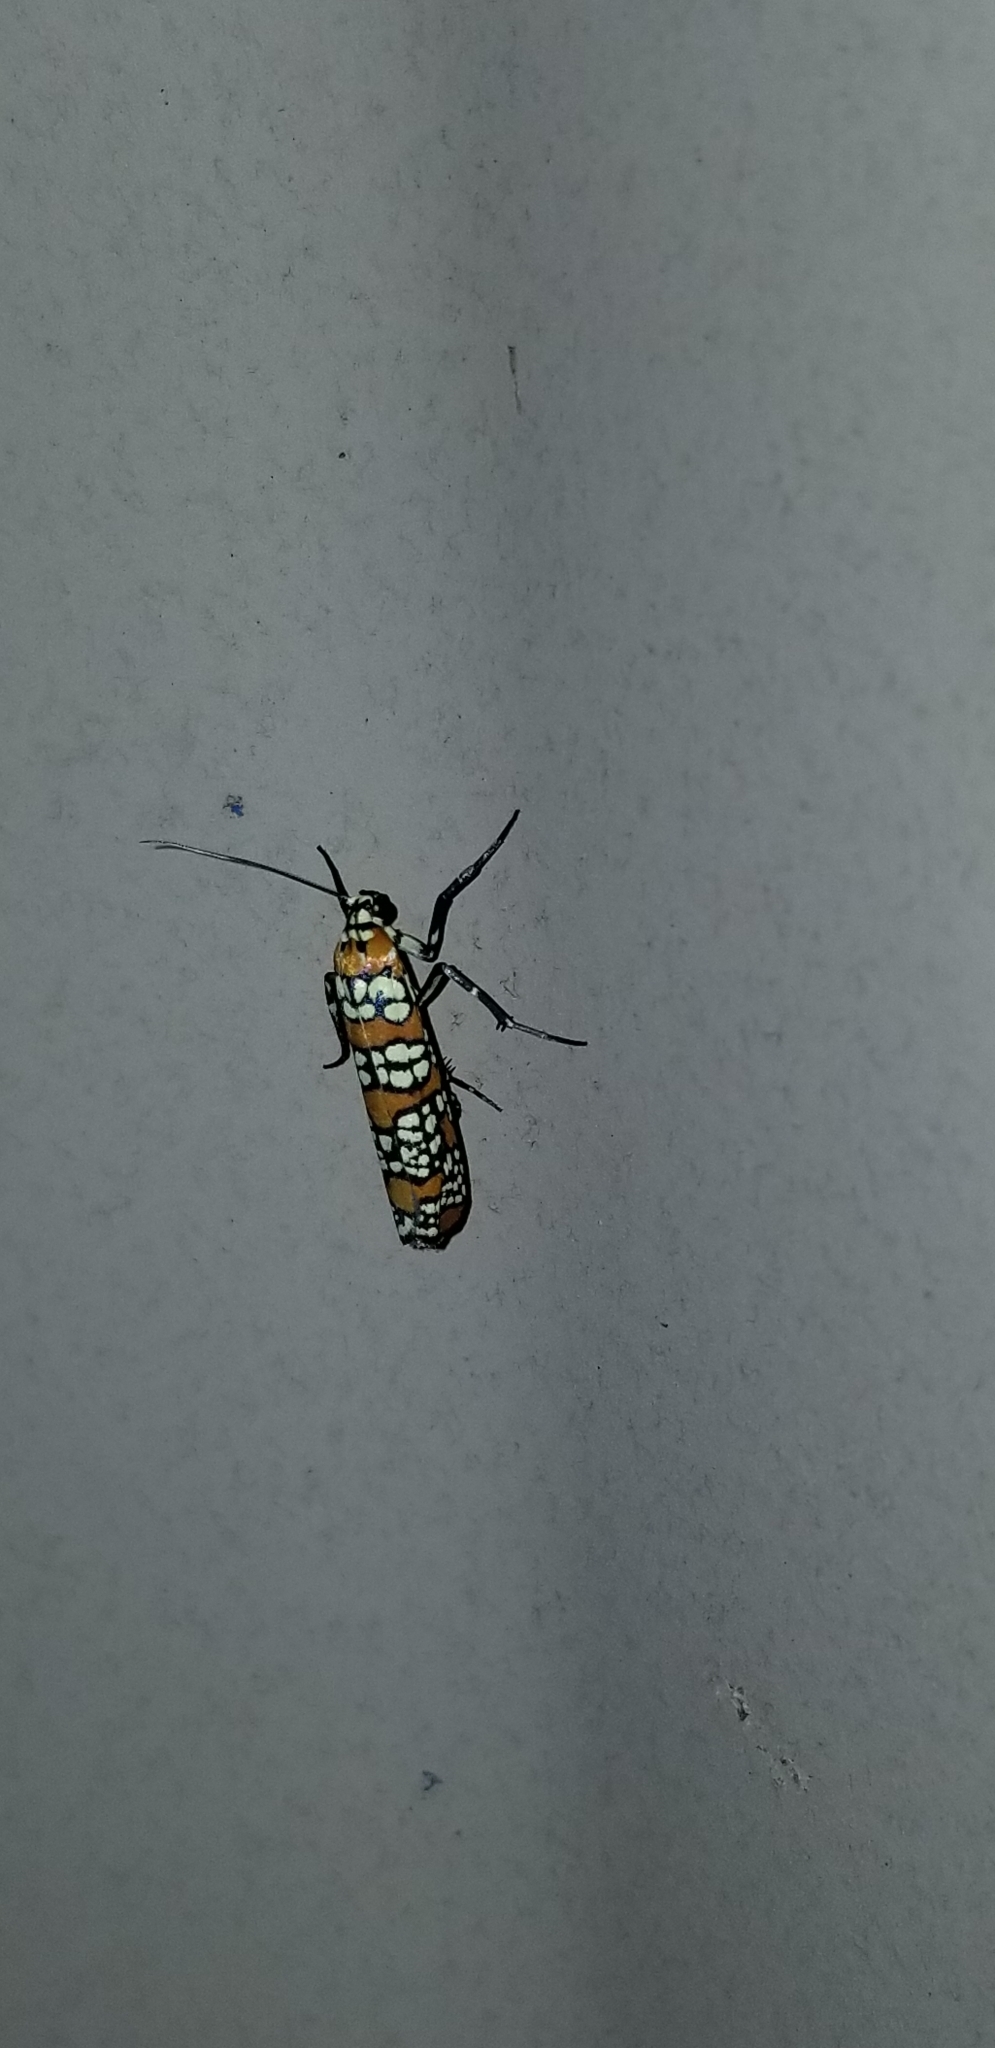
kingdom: Animalia
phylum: Arthropoda
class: Insecta
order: Lepidoptera
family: Attevidae
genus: Atteva
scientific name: Atteva punctella
